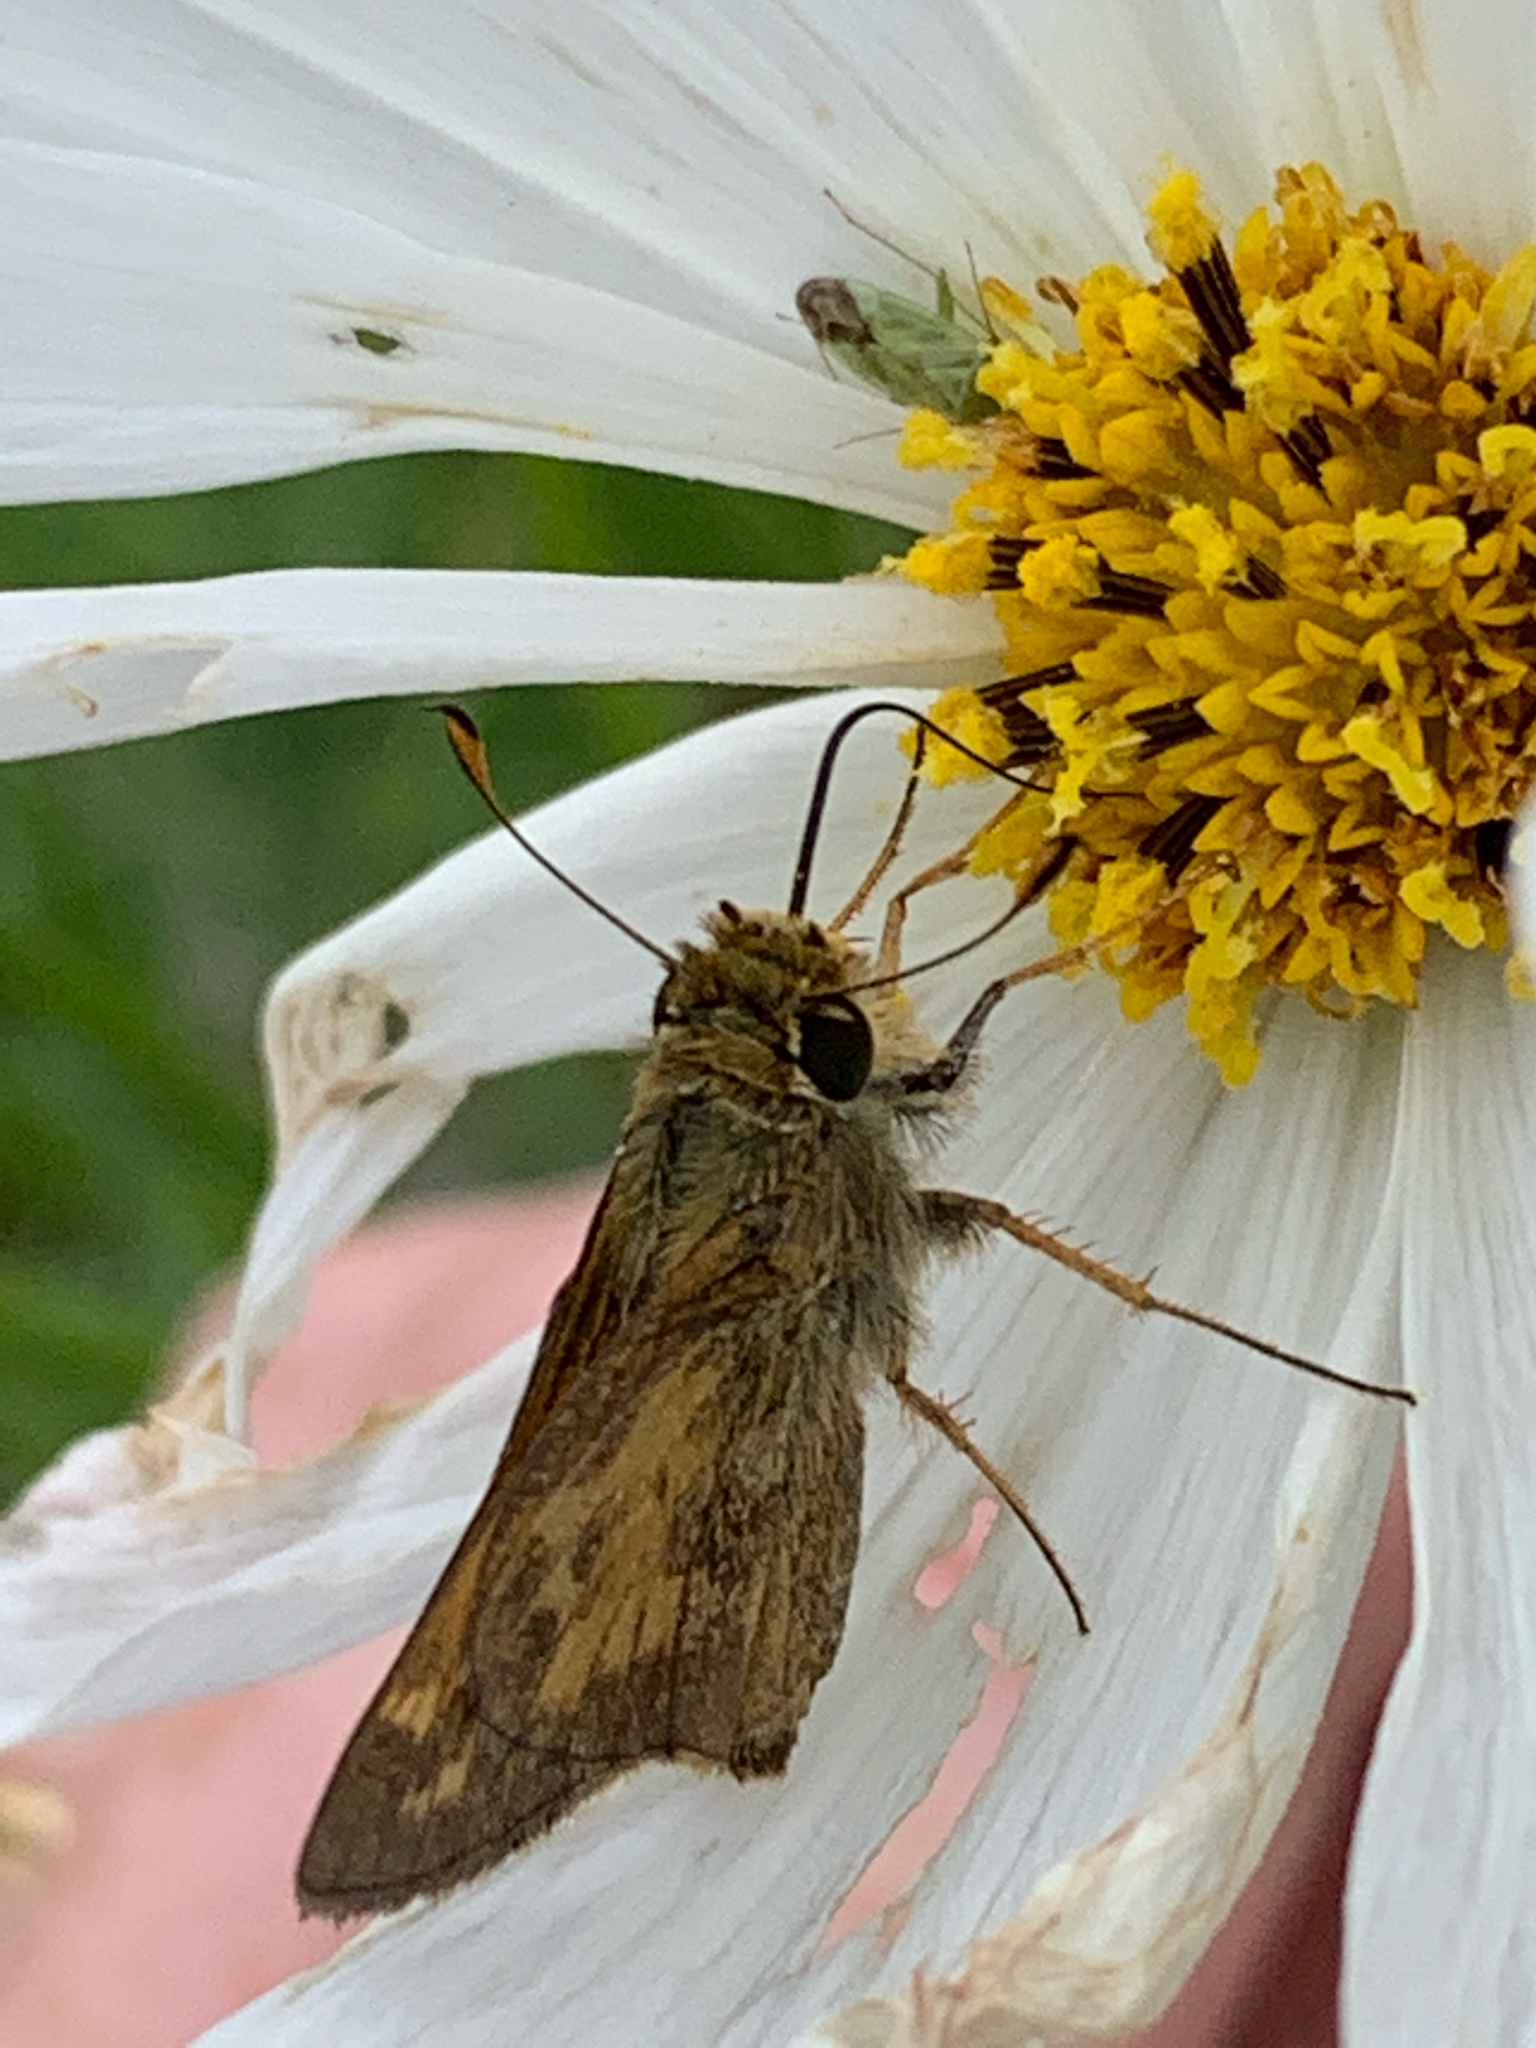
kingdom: Animalia
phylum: Arthropoda
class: Insecta
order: Lepidoptera
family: Hesperiidae
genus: Atalopedes
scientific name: Atalopedes
